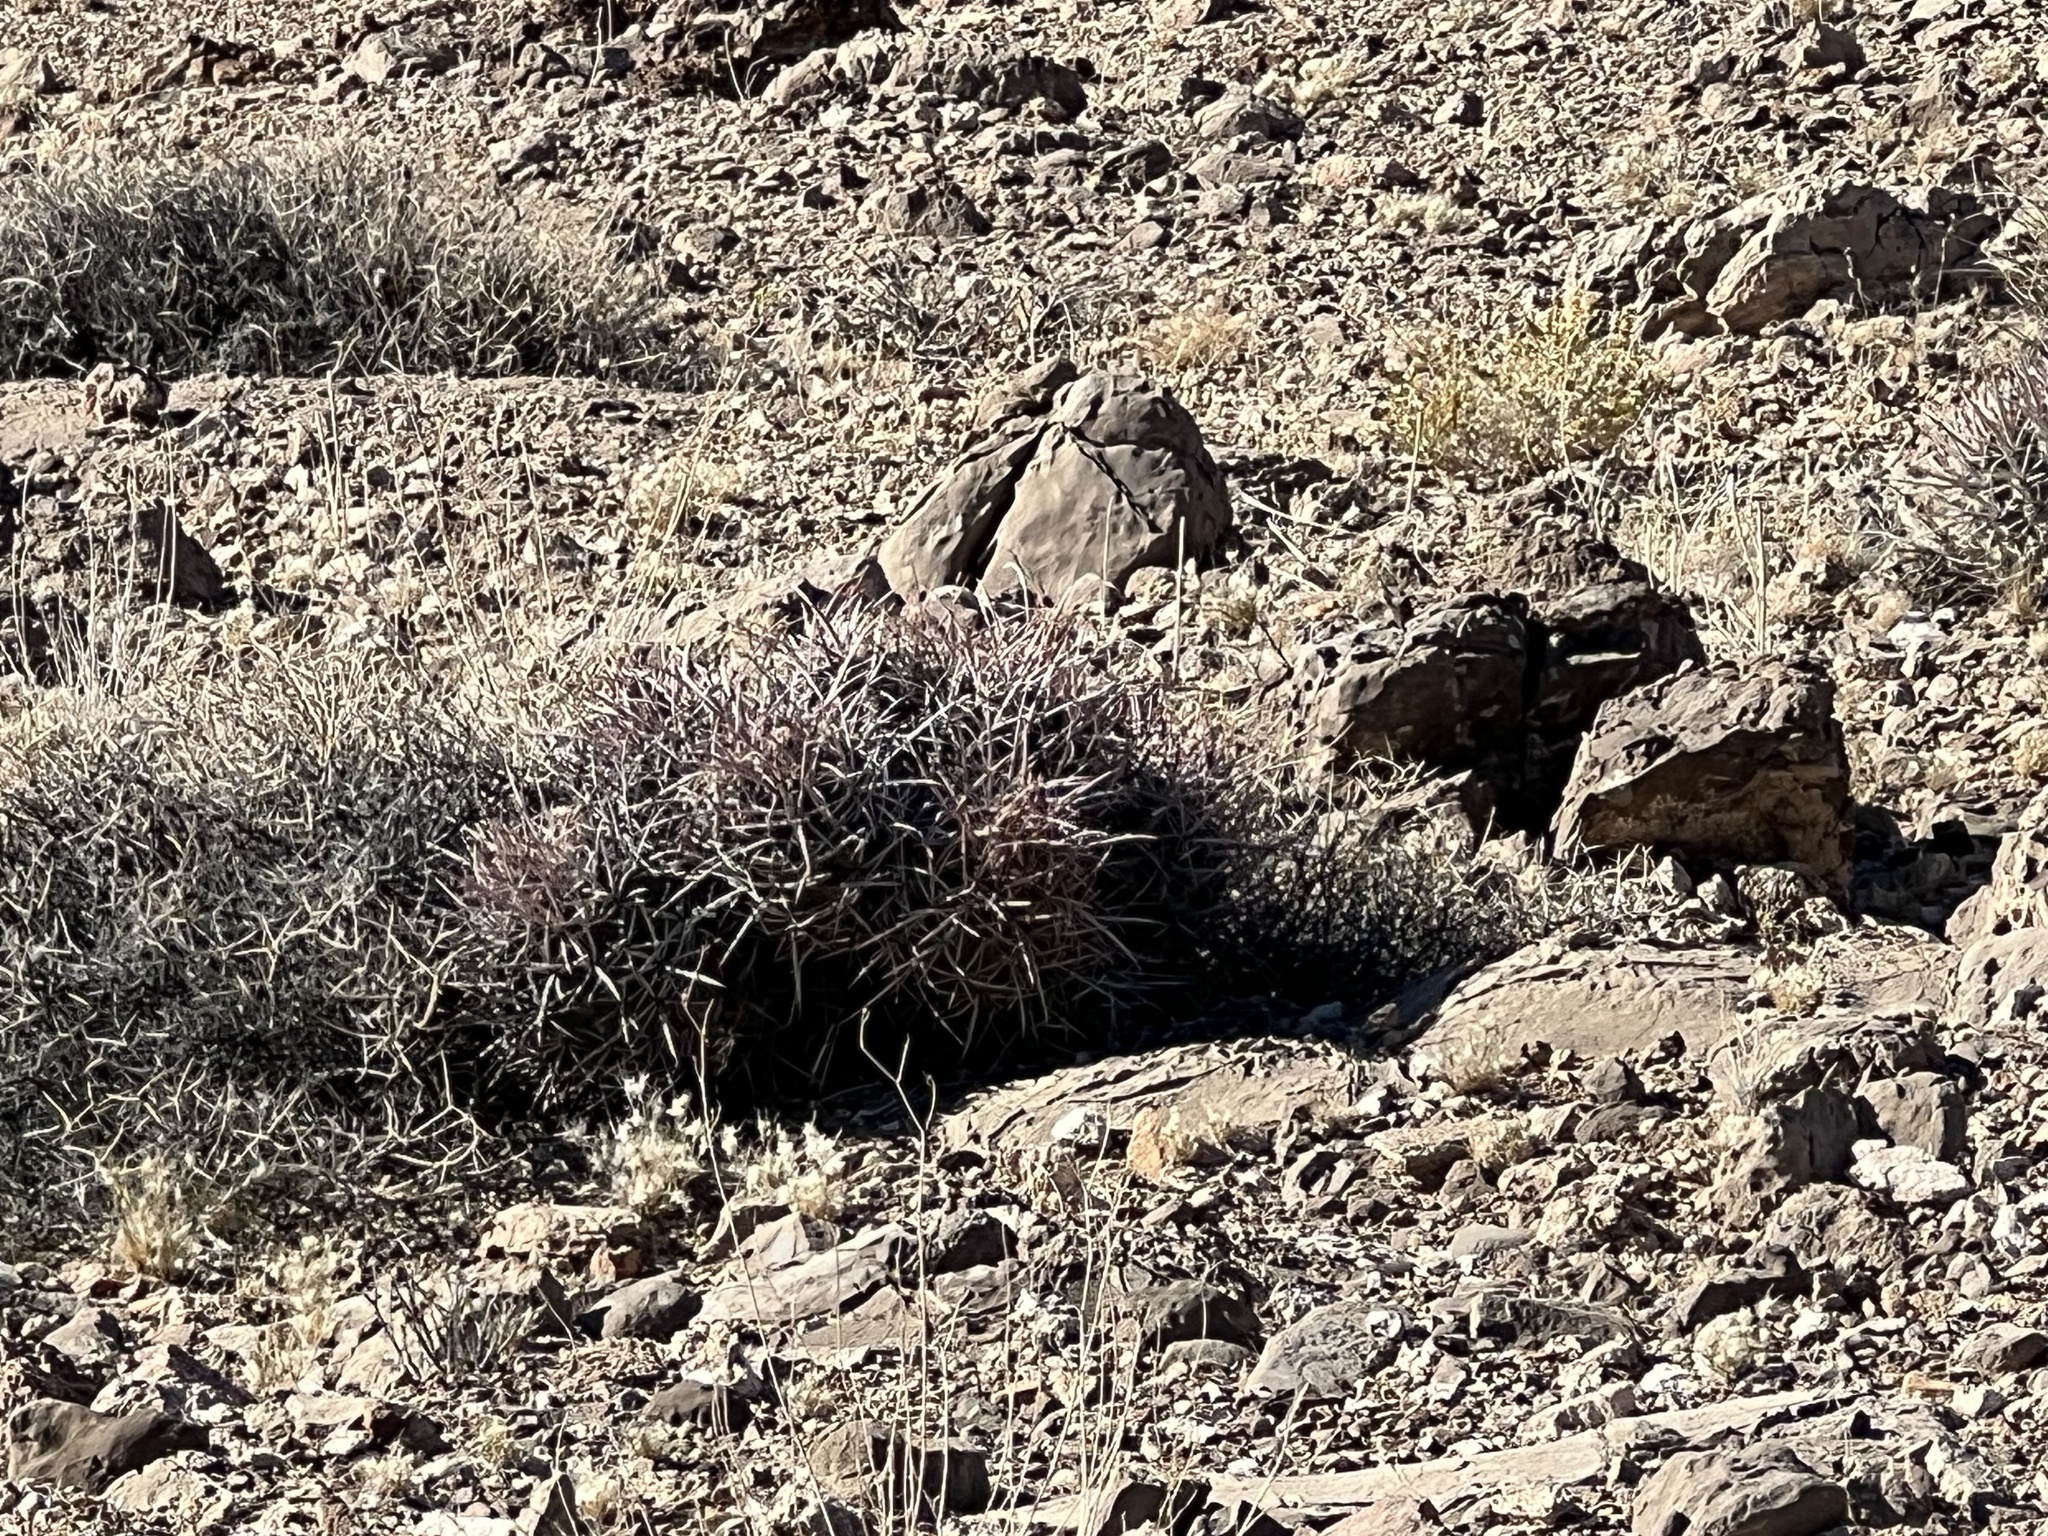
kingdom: Plantae
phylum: Tracheophyta
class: Magnoliopsida
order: Caryophyllales
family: Cactaceae
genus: Echinocactus
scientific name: Echinocactus polycephalus
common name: Cottontop cactus
